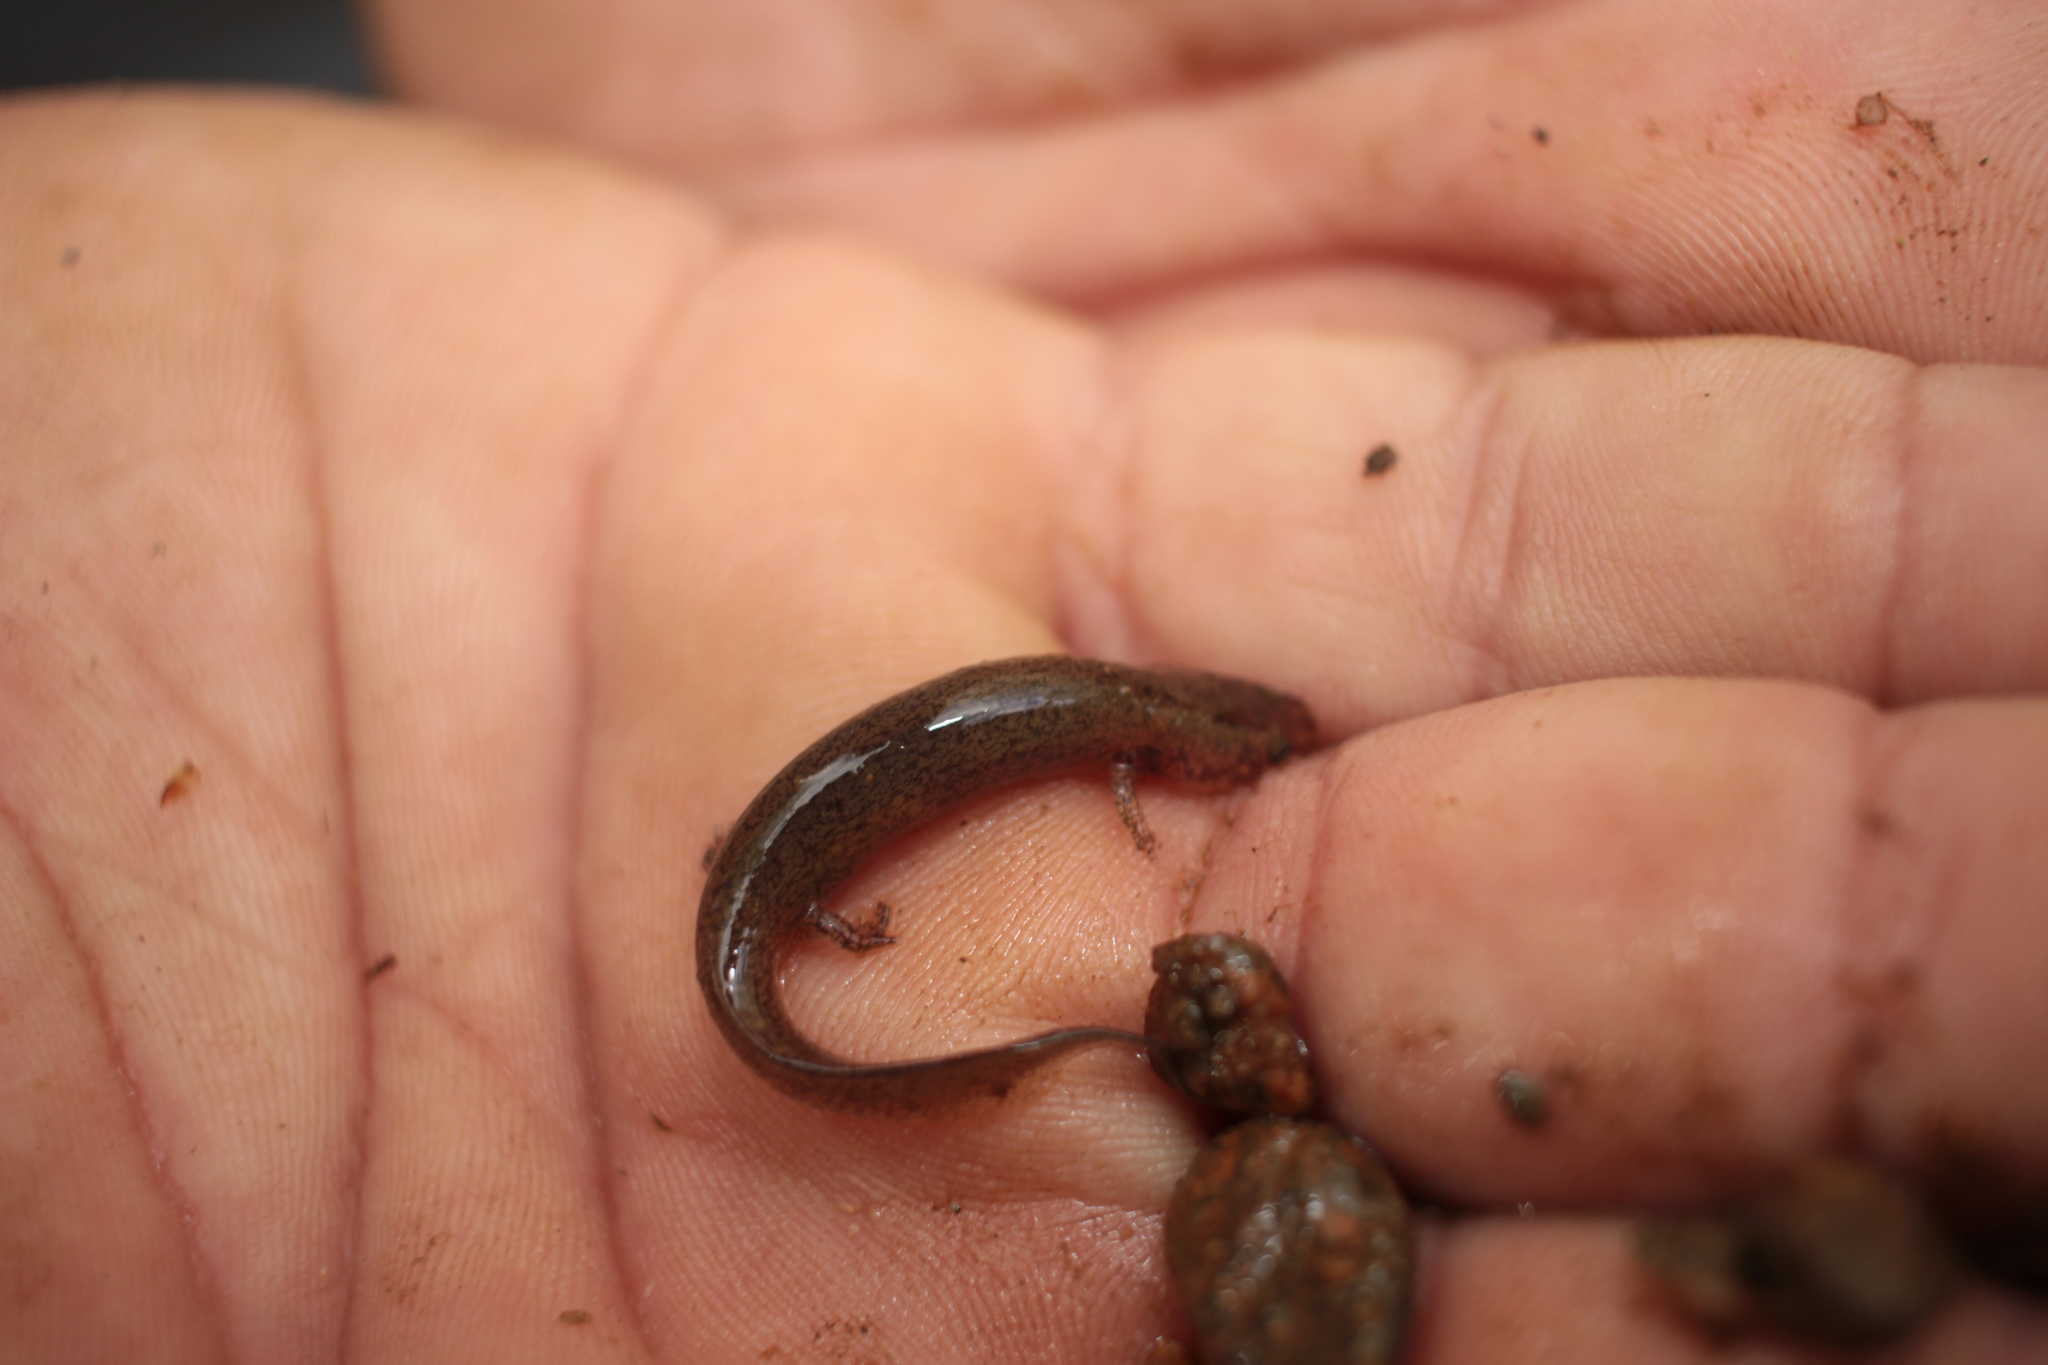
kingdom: Animalia
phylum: Chordata
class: Amphibia
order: Caudata
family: Plethodontidae
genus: Pseudotriton
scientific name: Pseudotriton ruber
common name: Red salamander
